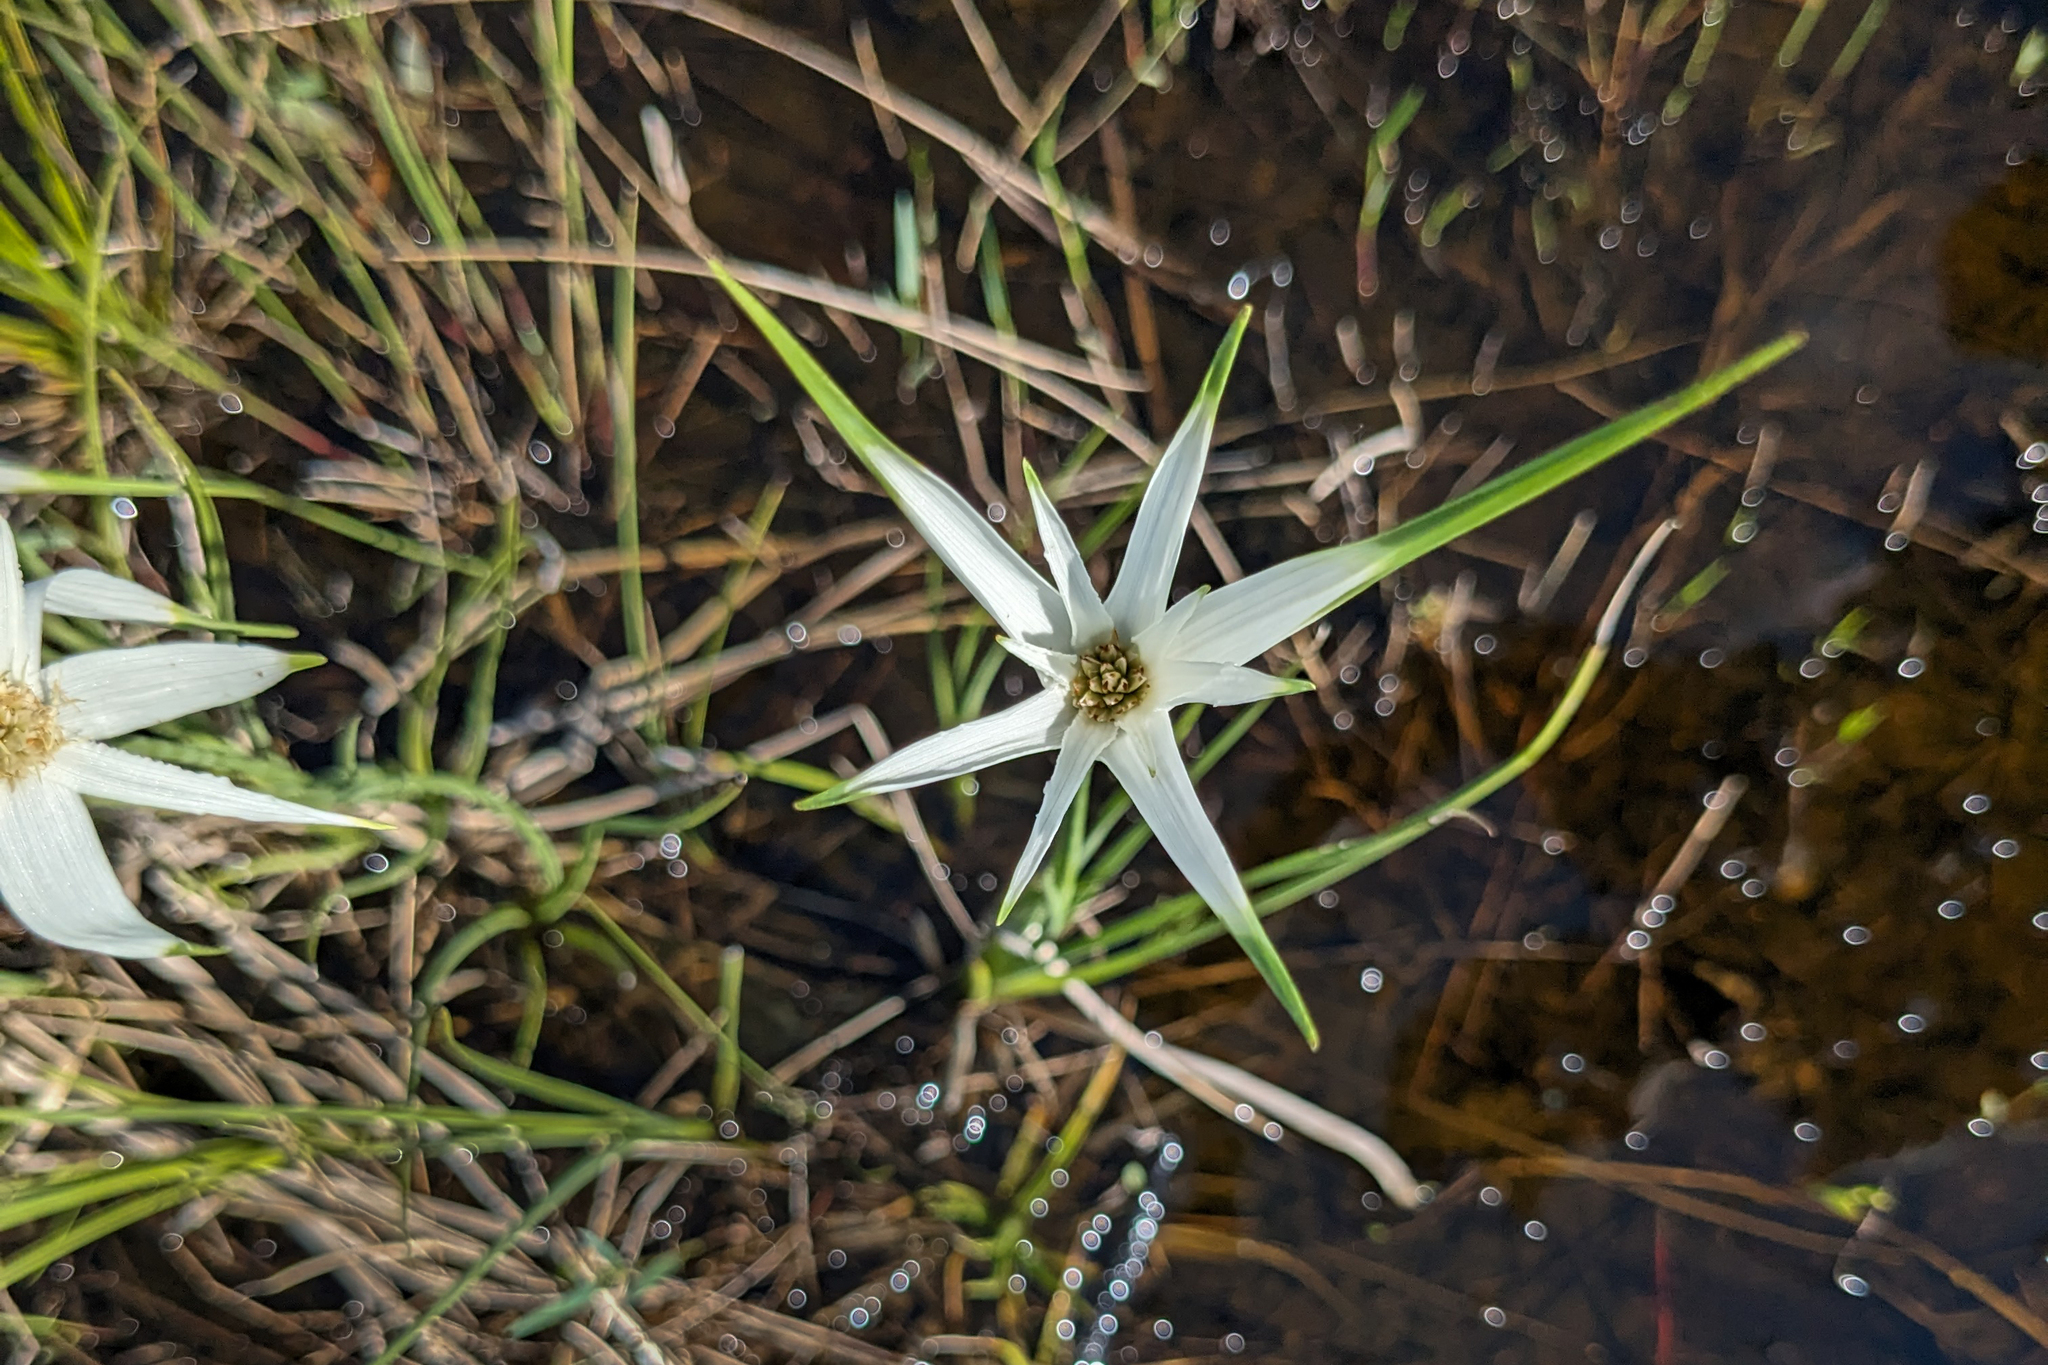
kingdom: Plantae
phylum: Tracheophyta
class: Liliopsida
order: Poales
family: Cyperaceae
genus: Rhynchospora
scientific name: Rhynchospora latifolia
